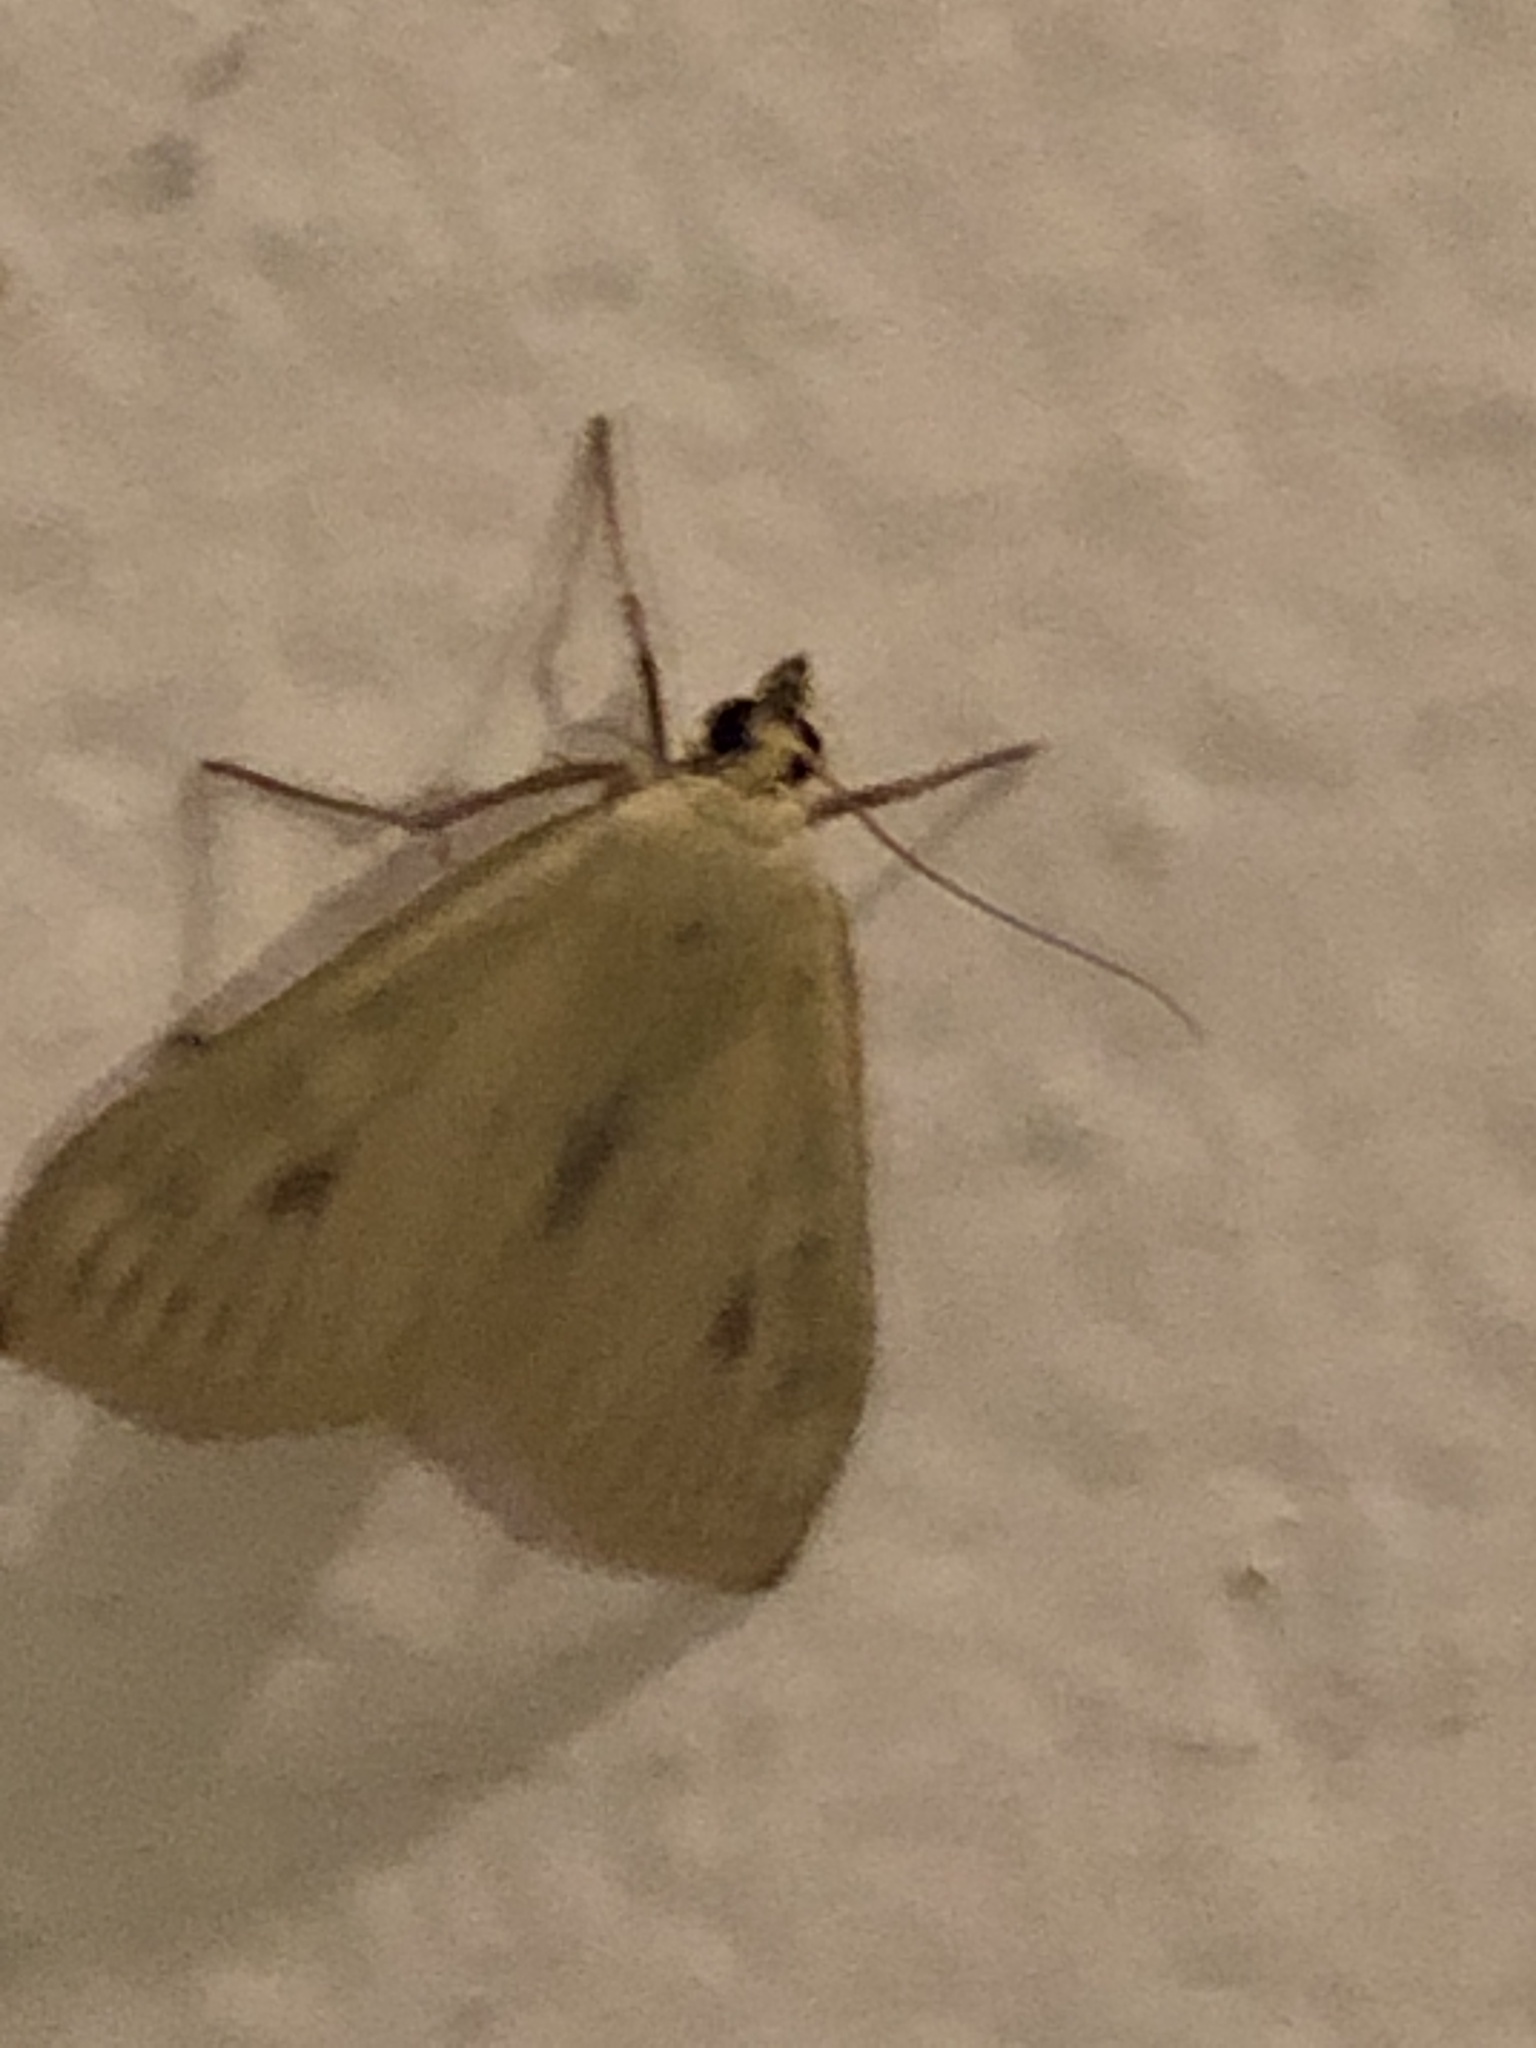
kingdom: Animalia
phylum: Arthropoda
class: Insecta
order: Lepidoptera
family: Crambidae
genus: Sitochroa
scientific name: Sitochroa palealis
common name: Greenish-yellow sitochroa moth
